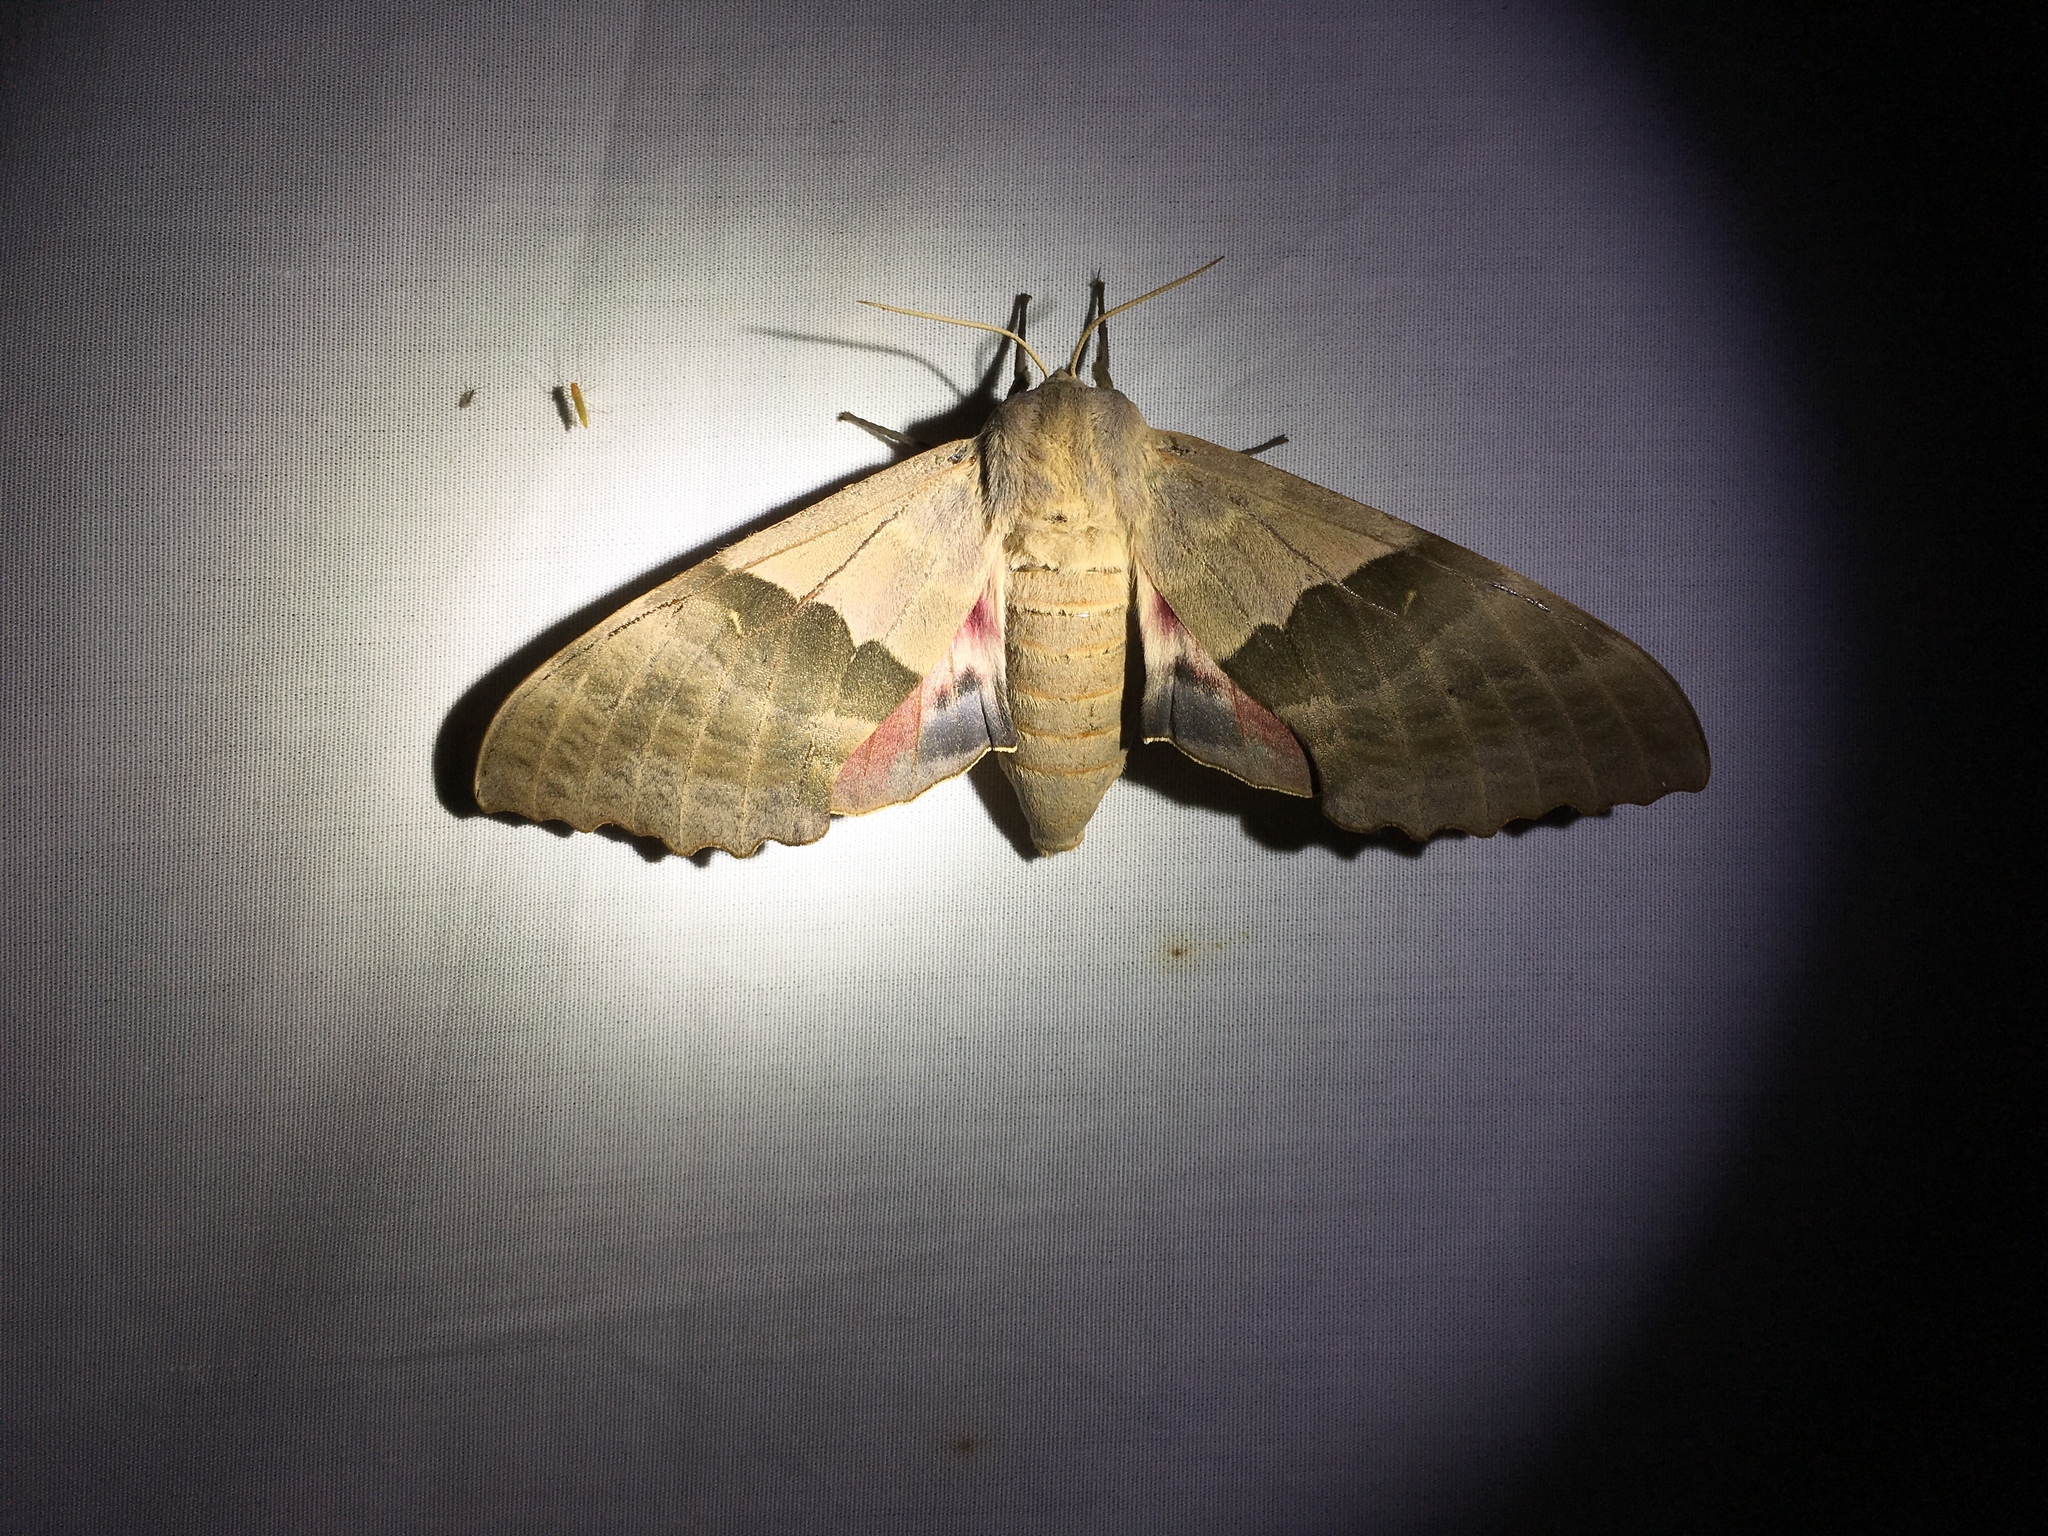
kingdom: Animalia
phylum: Arthropoda
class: Insecta
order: Lepidoptera
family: Sphingidae
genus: Pachysphinx
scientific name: Pachysphinx modesta
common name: Big poplar sphinx
